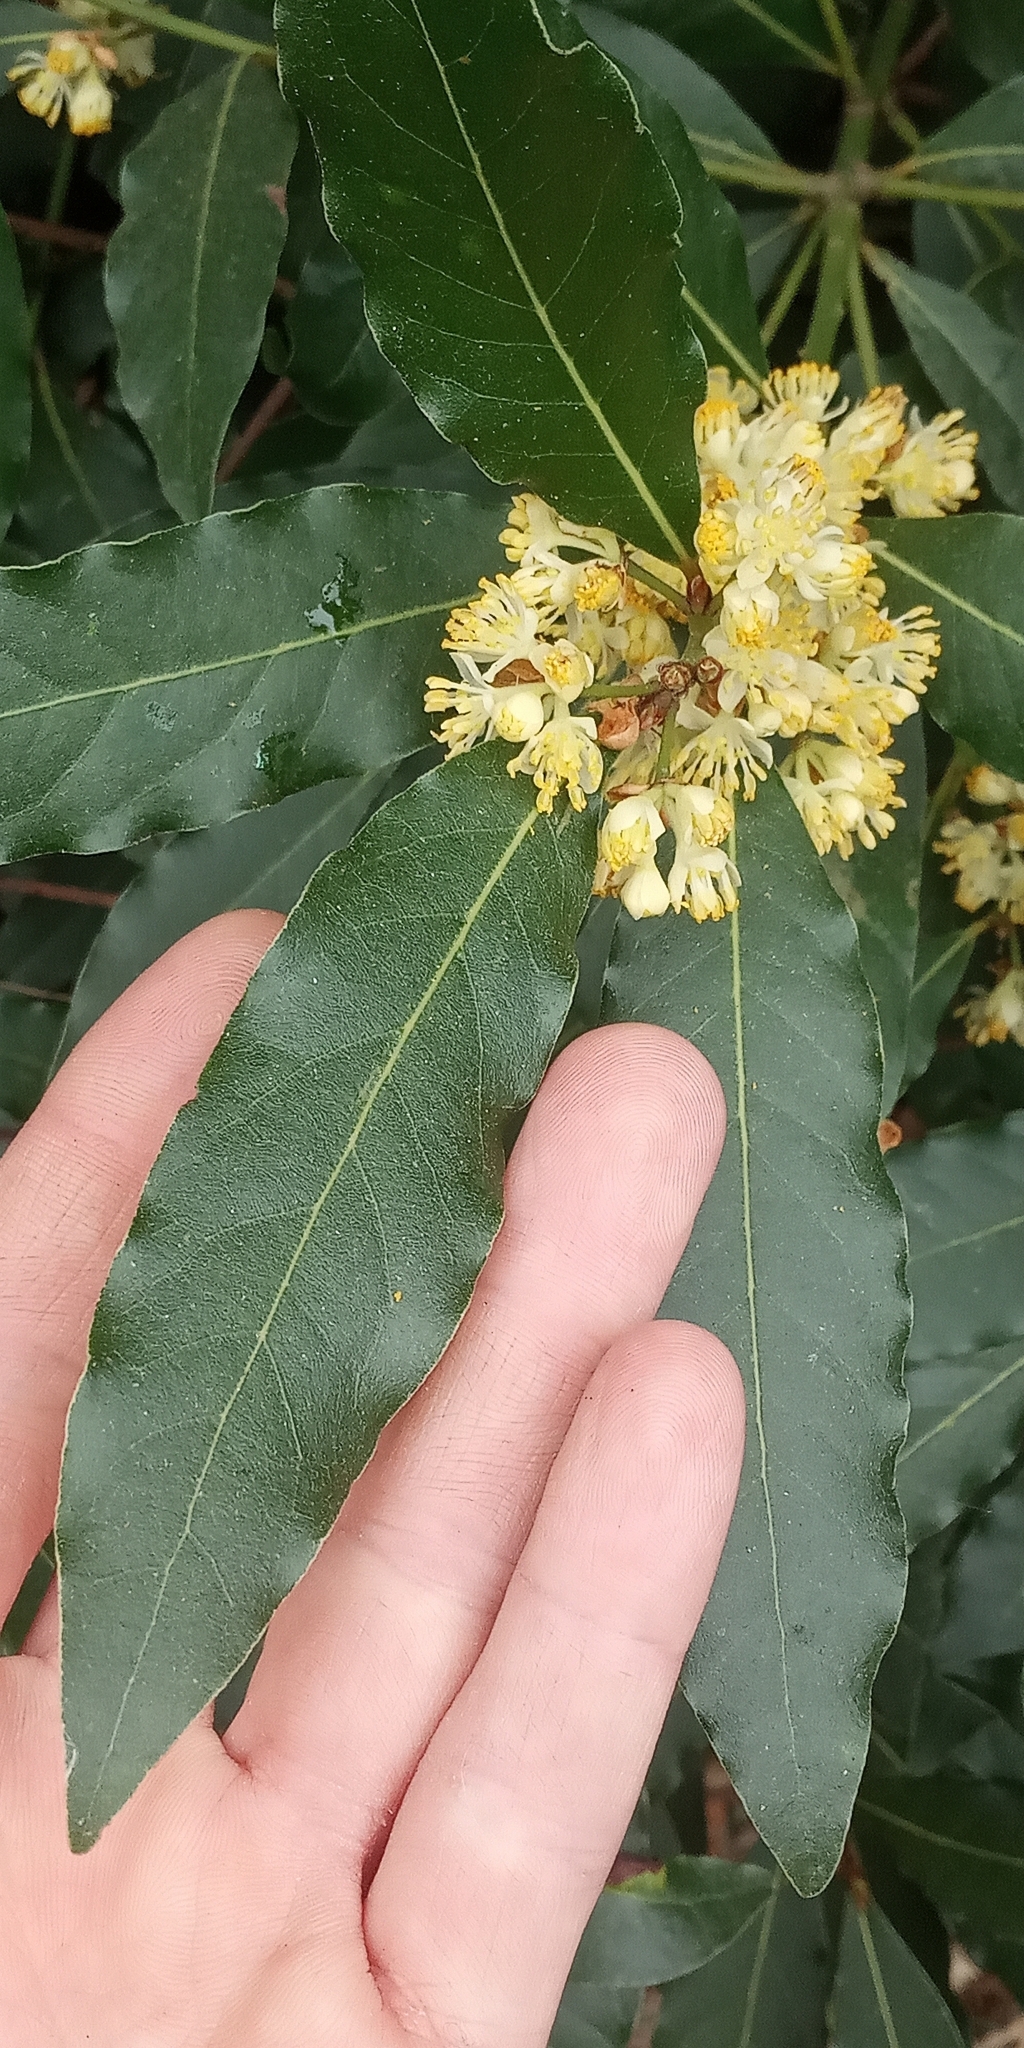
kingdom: Plantae
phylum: Tracheophyta
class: Magnoliopsida
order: Laurales
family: Lauraceae
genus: Laurus
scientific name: Laurus nobilis
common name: Bay
